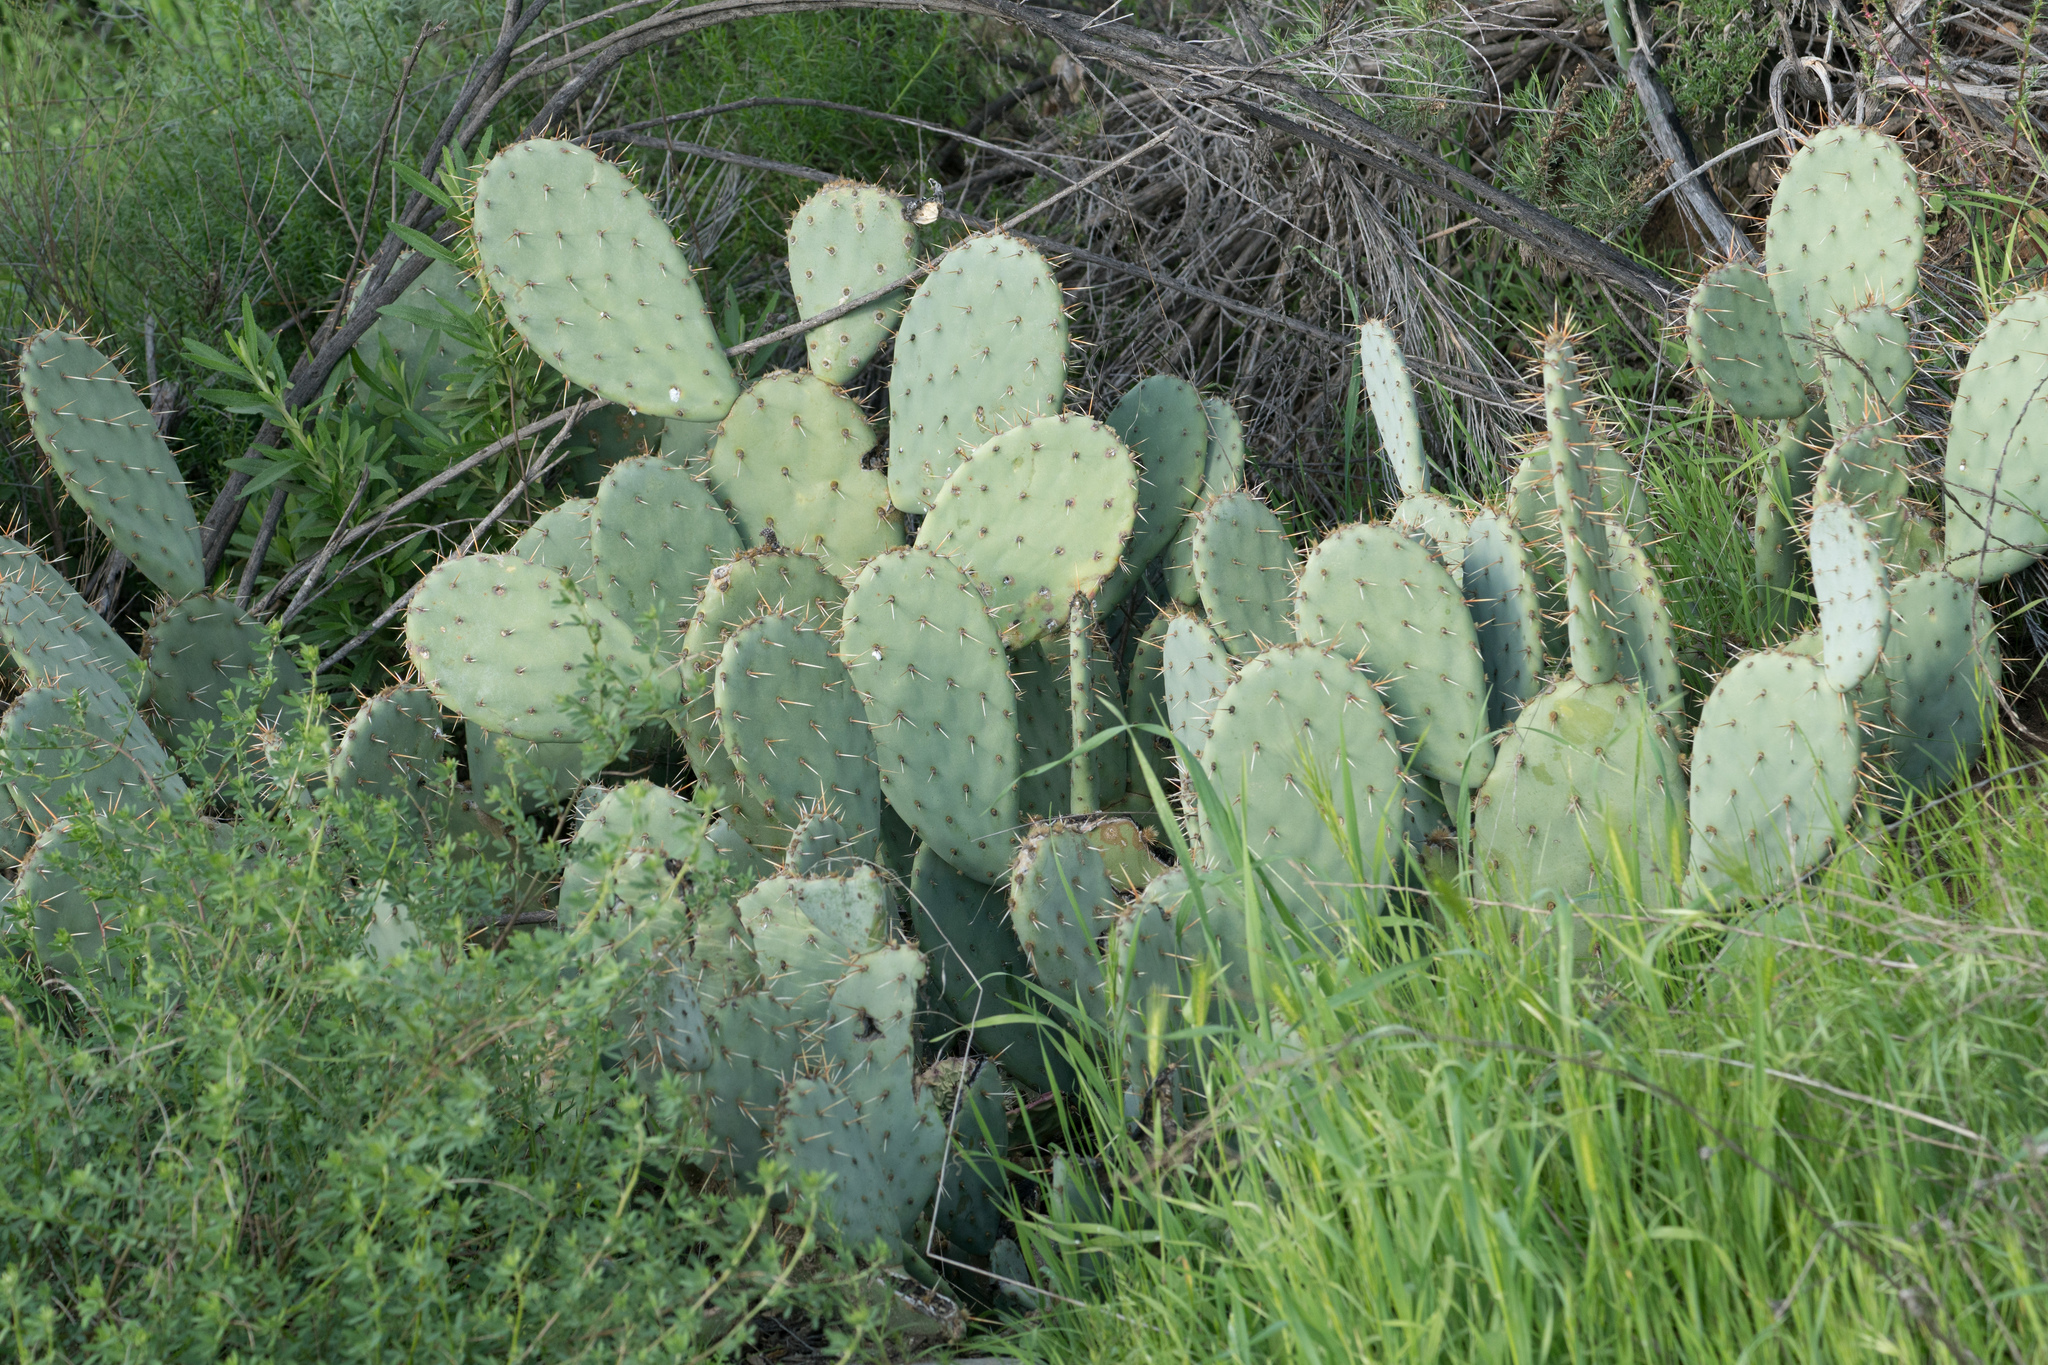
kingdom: Plantae
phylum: Tracheophyta
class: Magnoliopsida
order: Caryophyllales
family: Cactaceae
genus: Opuntia
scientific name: Opuntia
